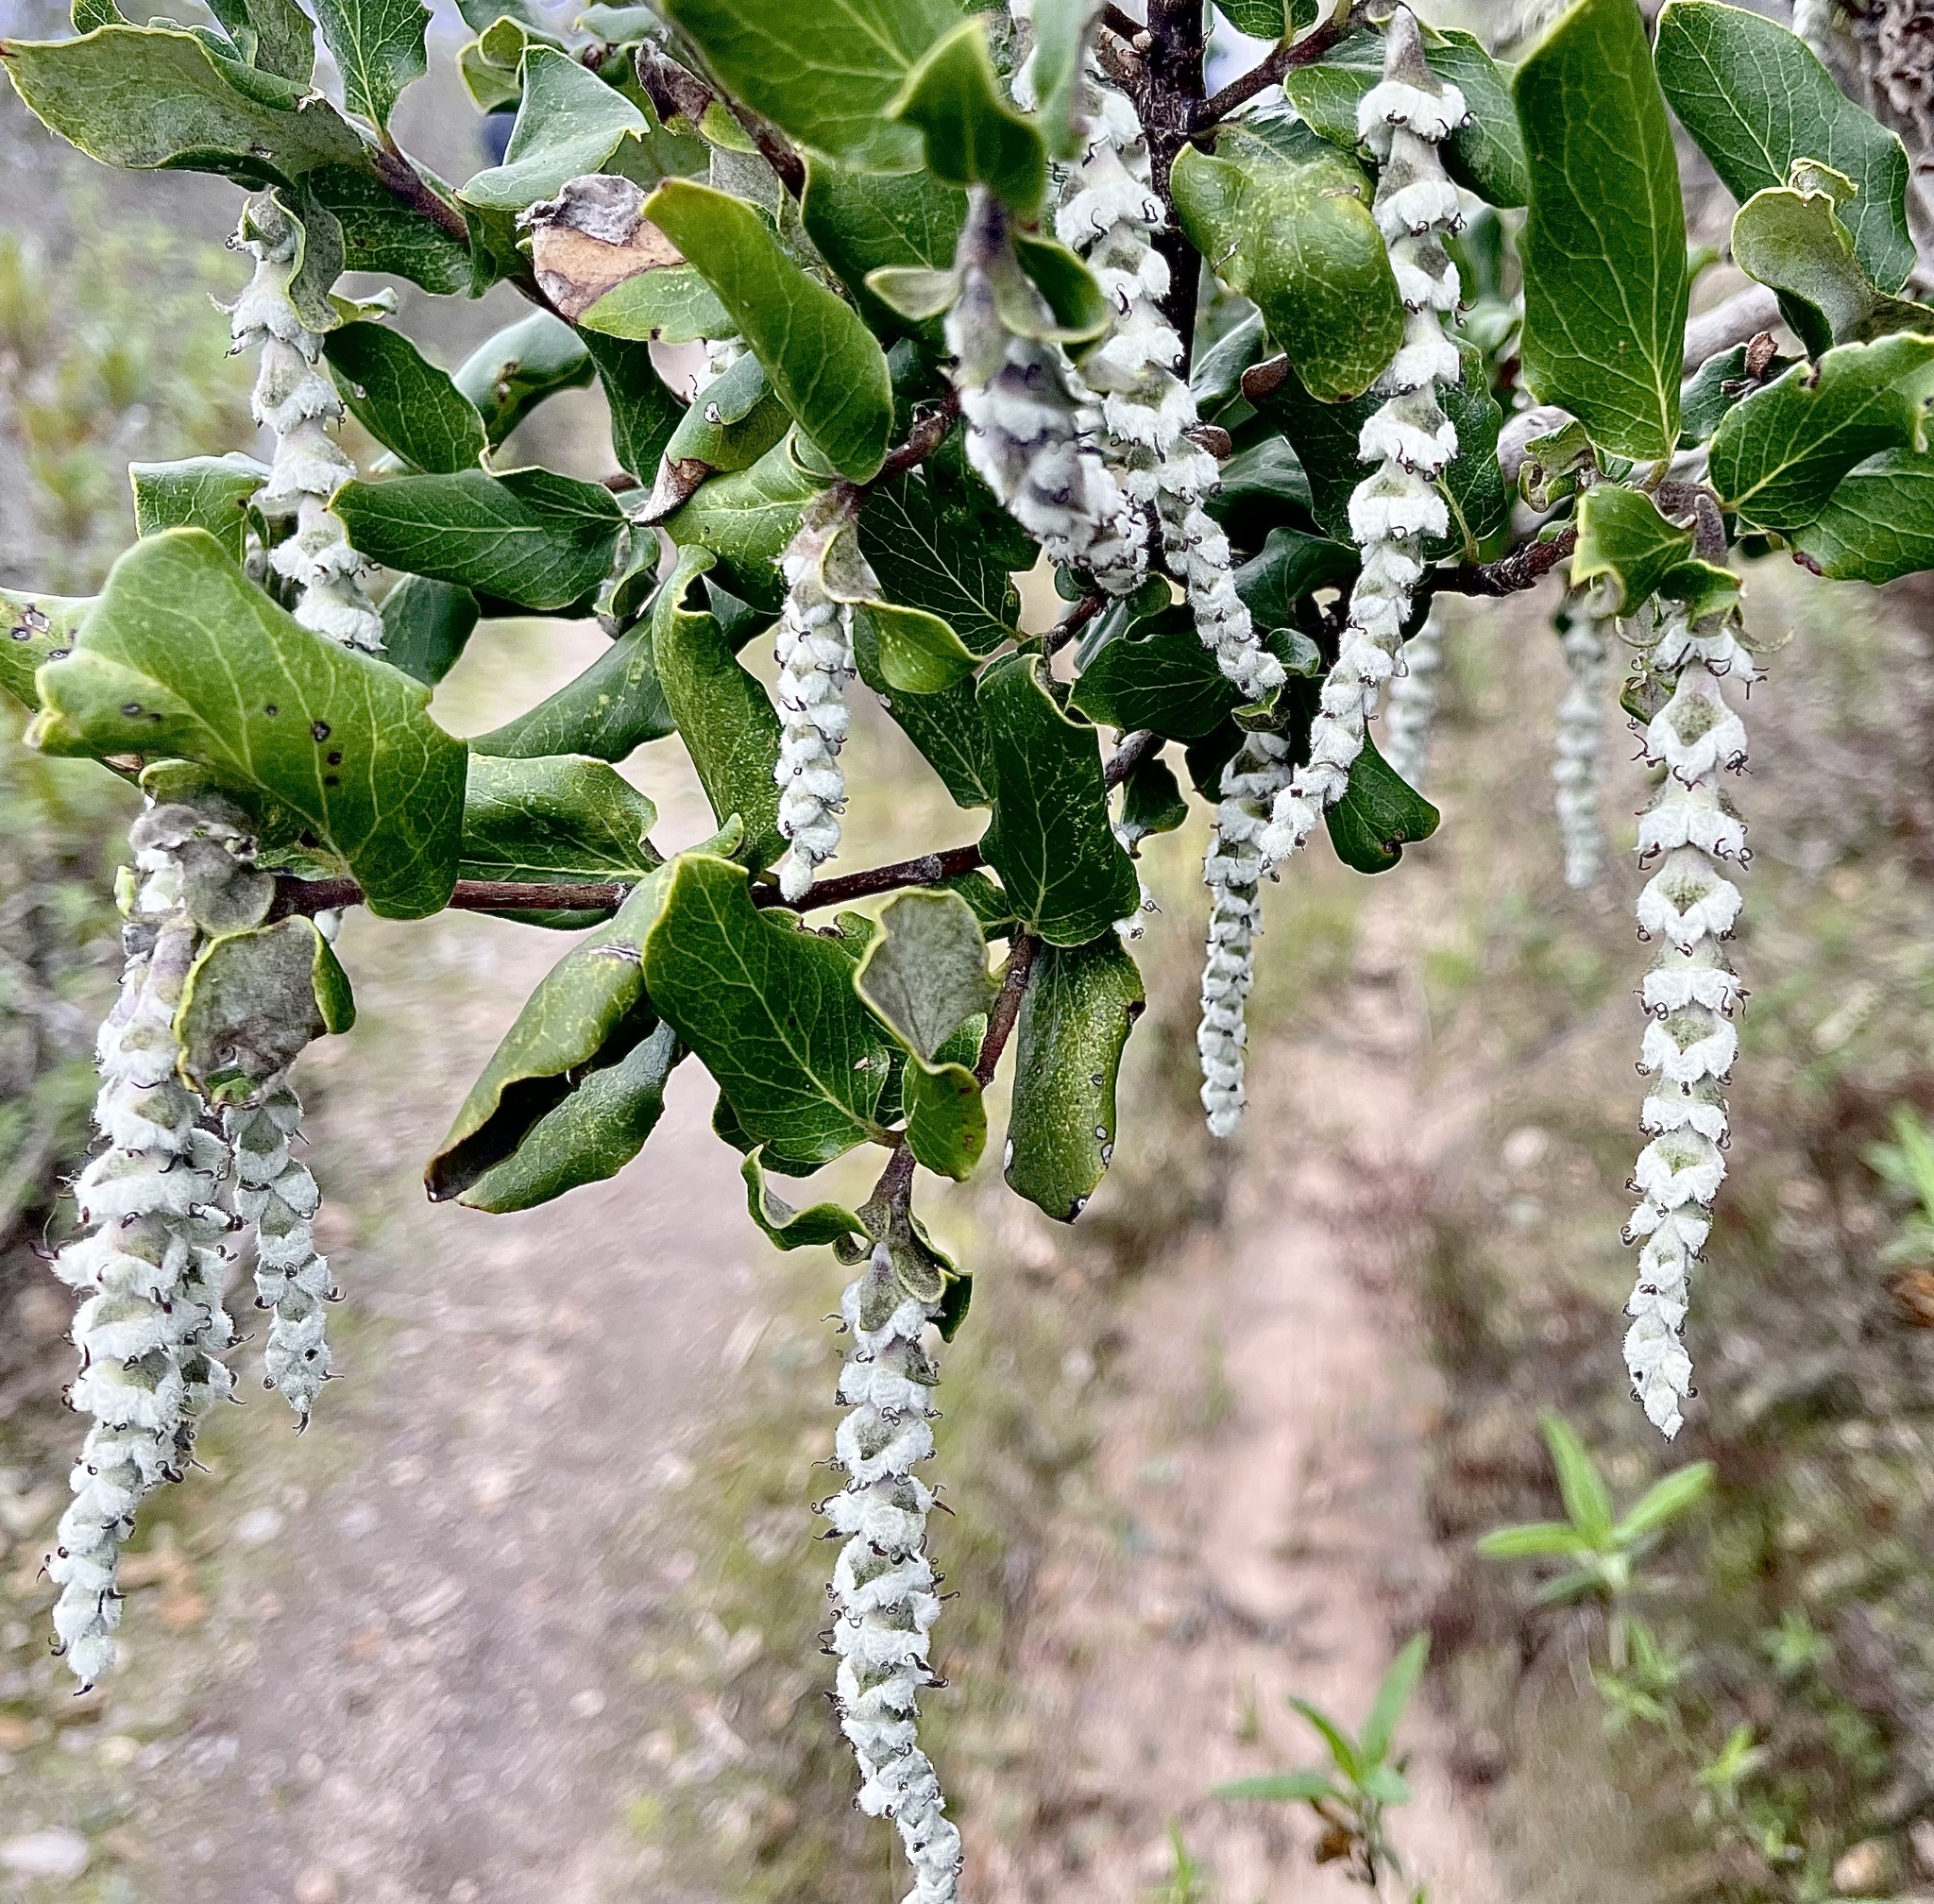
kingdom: Plantae
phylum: Tracheophyta
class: Magnoliopsida
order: Garryales
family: Garryaceae
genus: Garrya
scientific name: Garrya elliptica
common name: Silk-tassel
